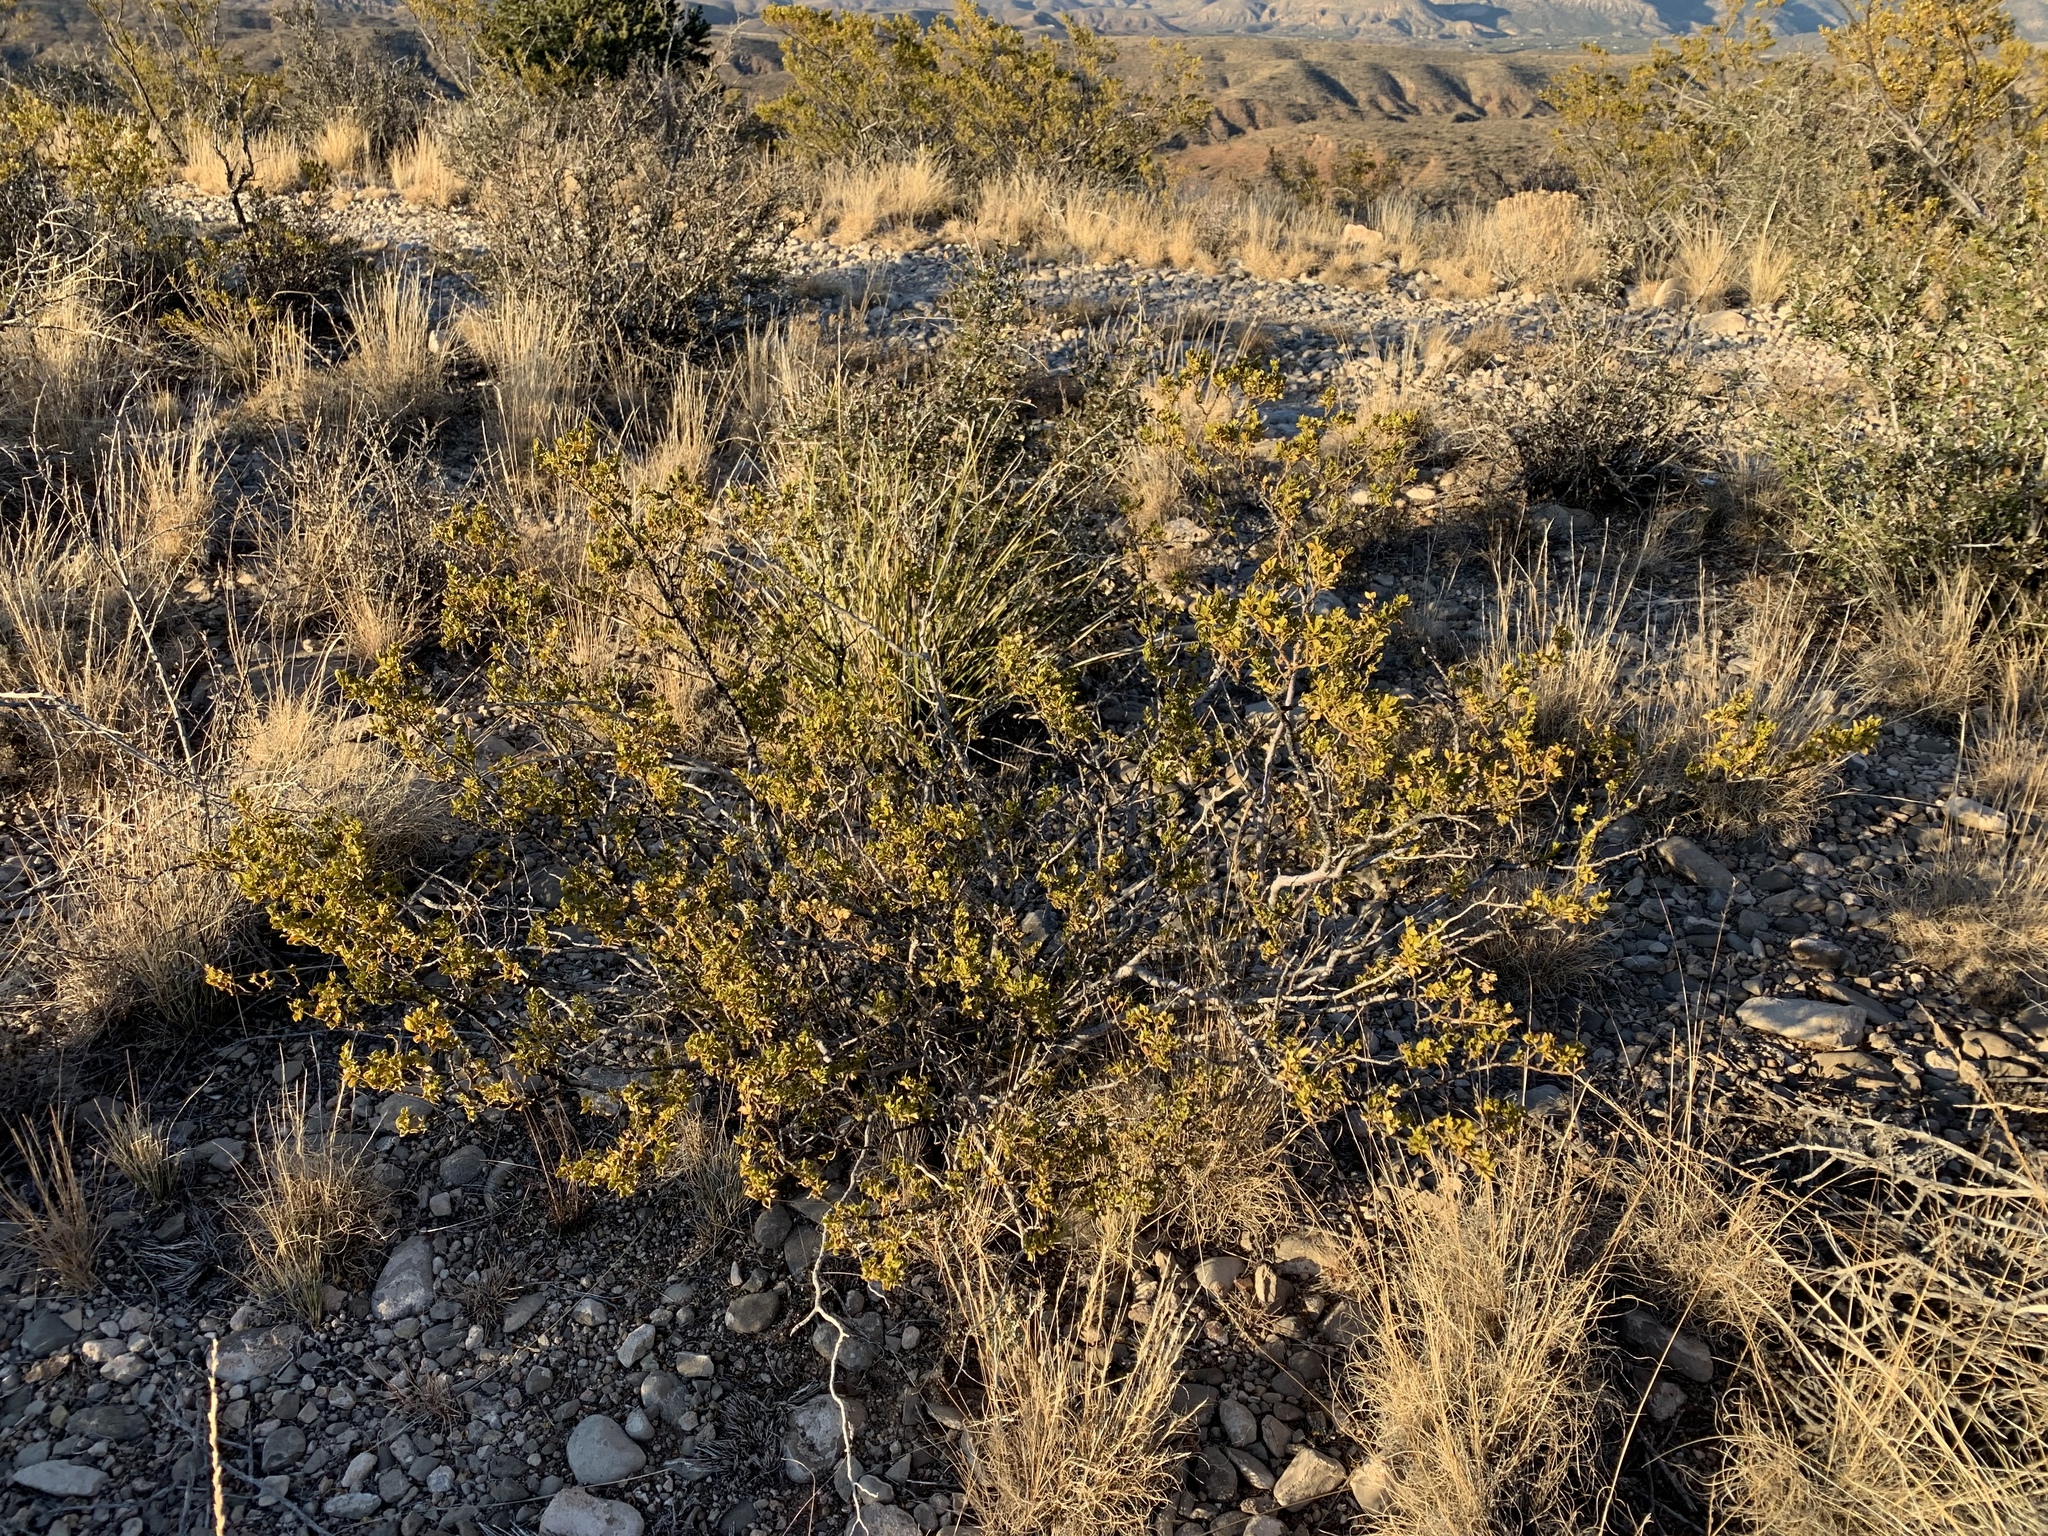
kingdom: Plantae
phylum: Tracheophyta
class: Magnoliopsida
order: Zygophyllales
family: Zygophyllaceae
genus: Larrea
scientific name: Larrea tridentata
